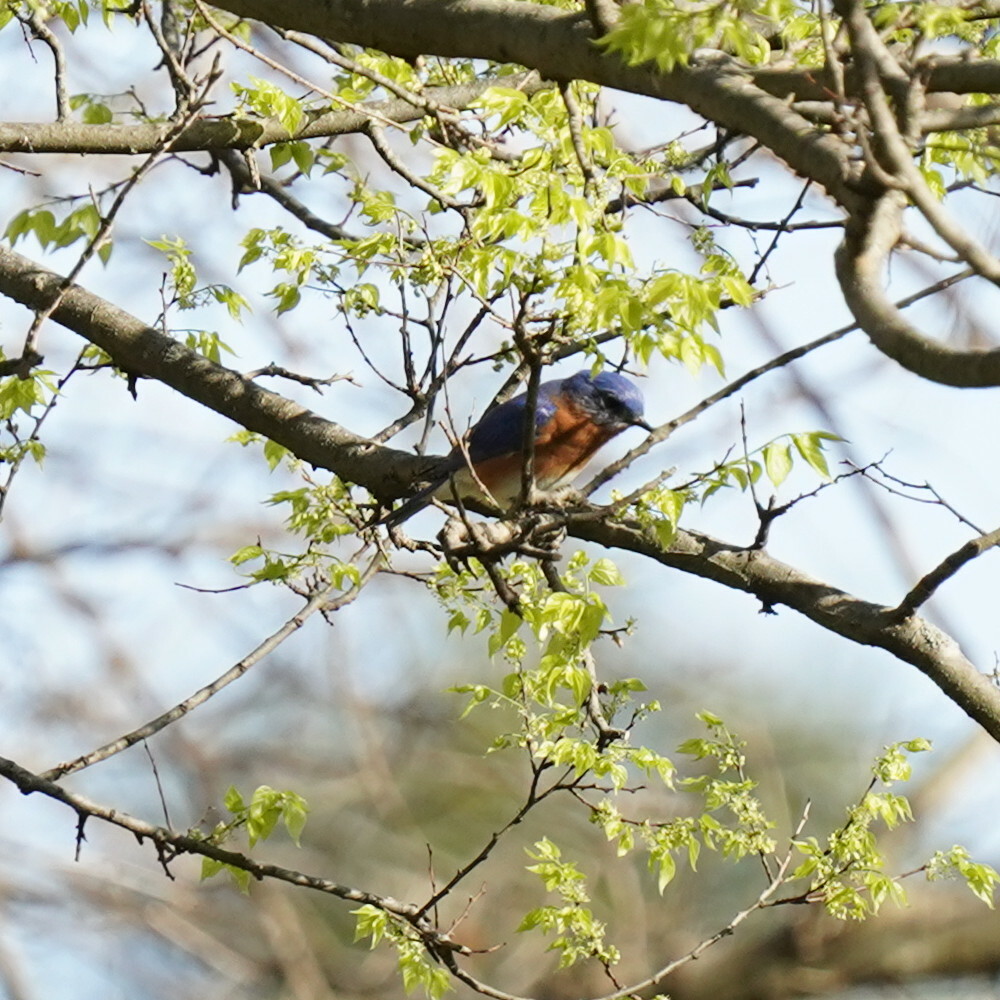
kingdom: Animalia
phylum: Chordata
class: Aves
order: Passeriformes
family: Turdidae
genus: Sialia
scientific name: Sialia sialis
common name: Eastern bluebird
